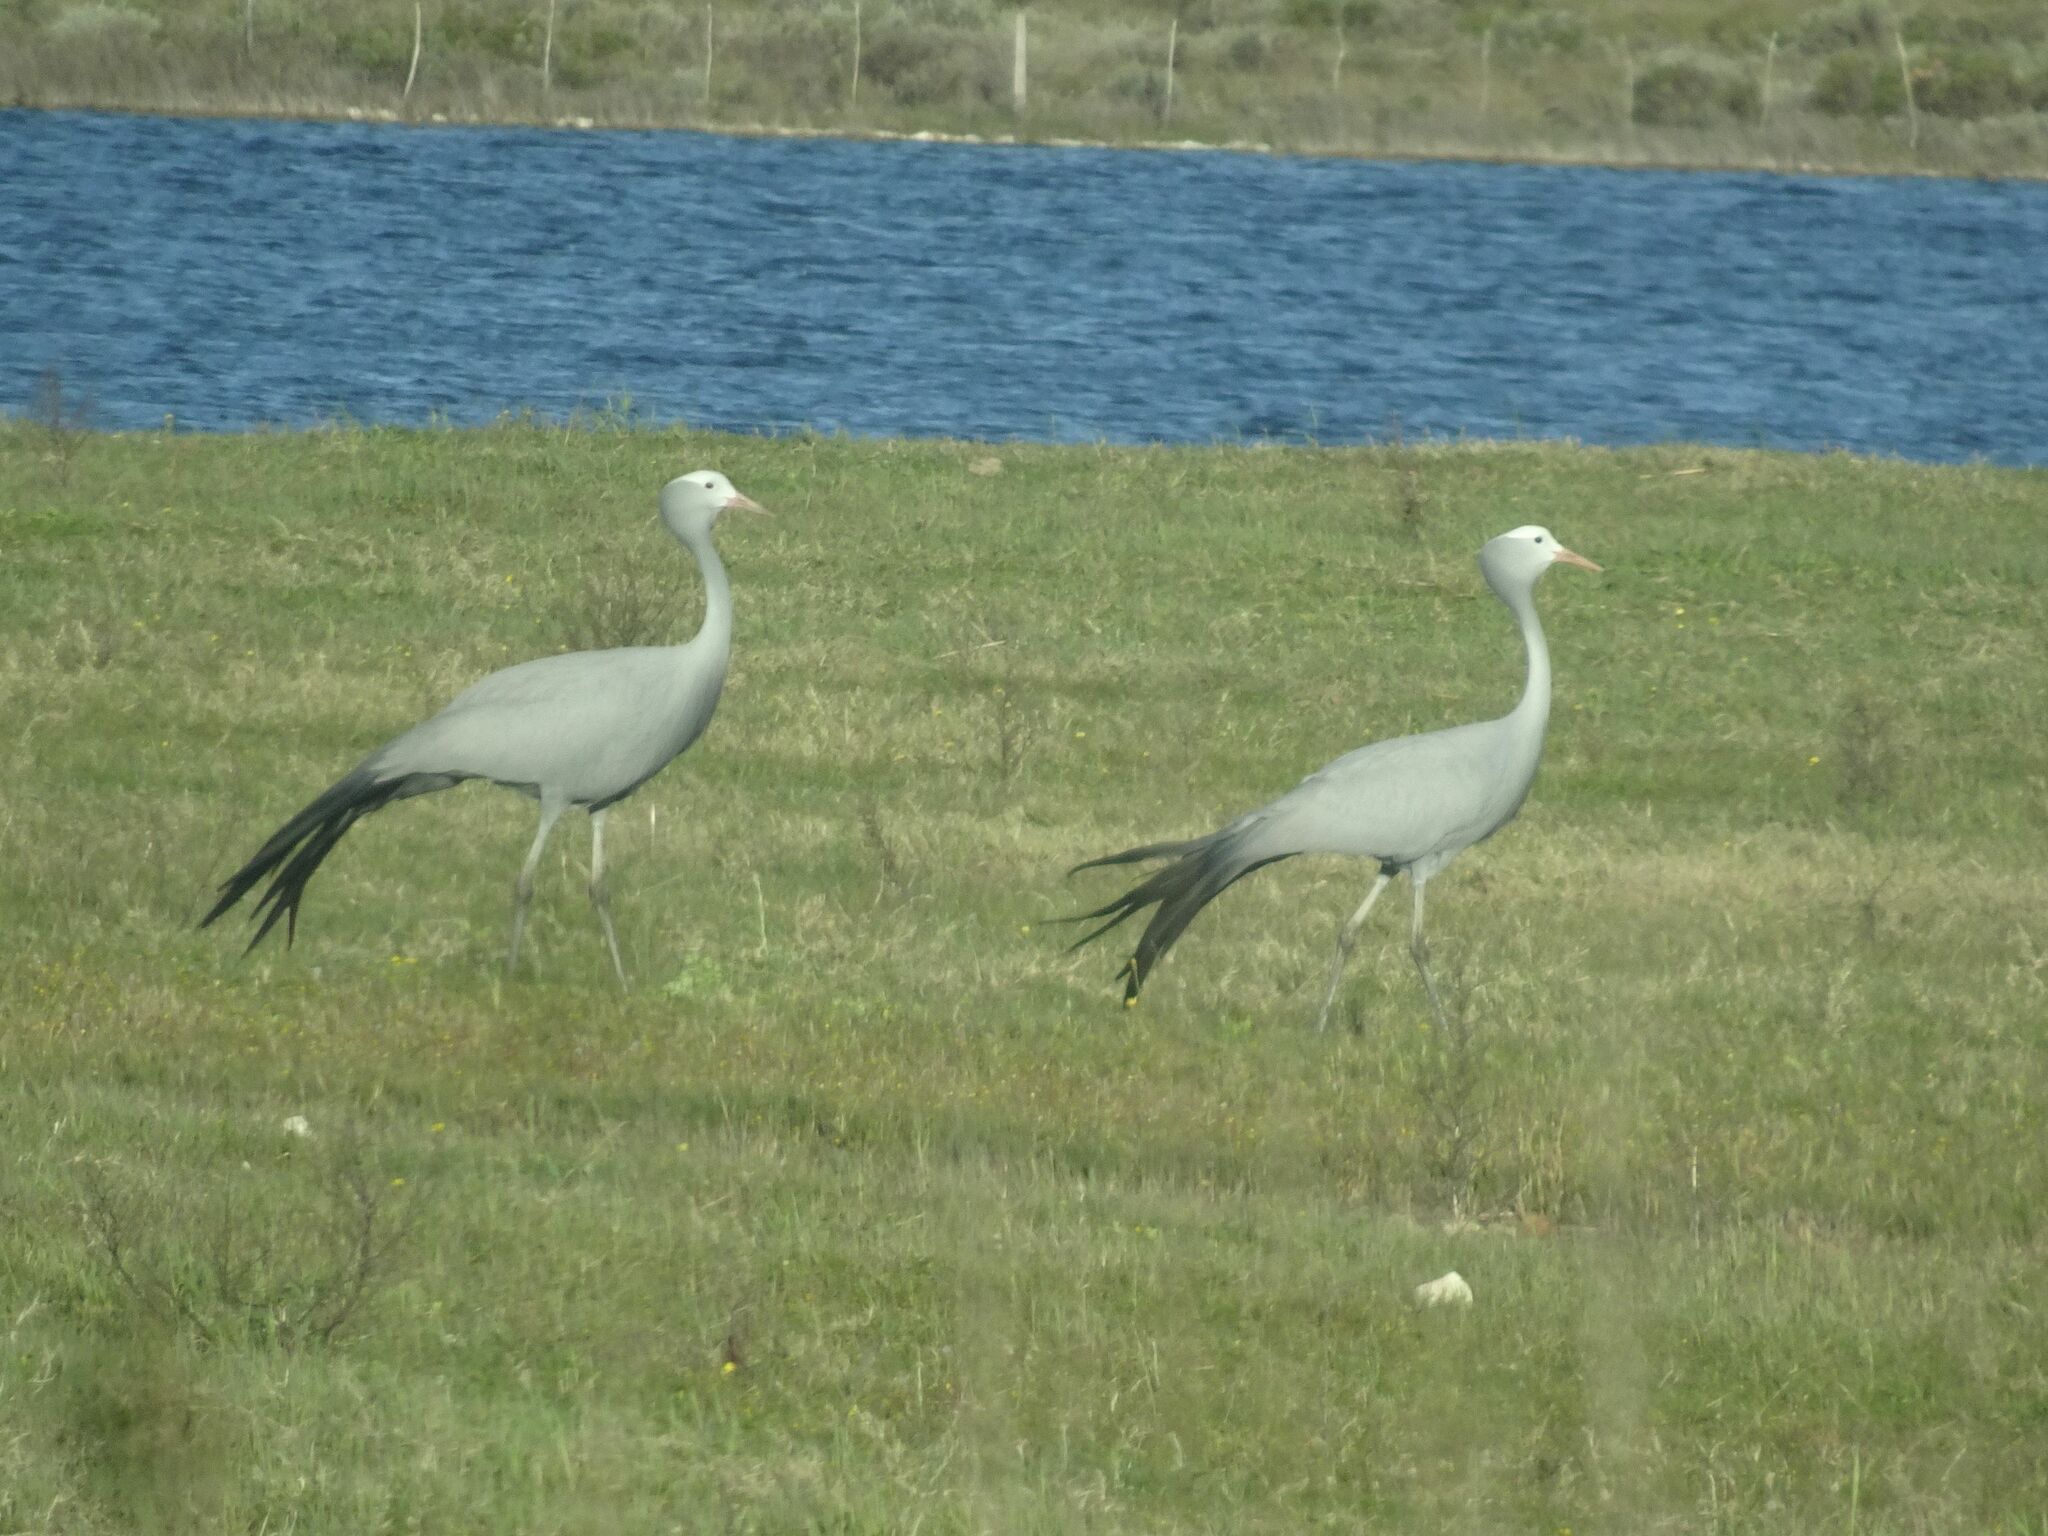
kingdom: Animalia
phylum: Chordata
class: Aves
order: Gruiformes
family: Gruidae
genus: Anthropoides
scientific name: Anthropoides paradiseus
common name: Blue crane
